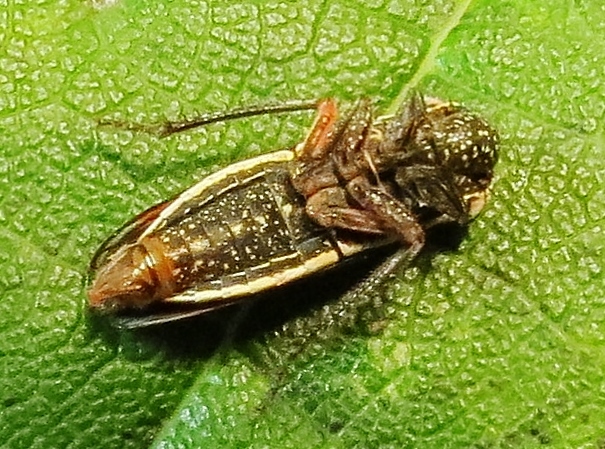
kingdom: Animalia
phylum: Arthropoda
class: Insecta
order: Hemiptera
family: Cicadellidae
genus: Cuerna
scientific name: Cuerna costalis
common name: Lateral-lined sharpshooter
